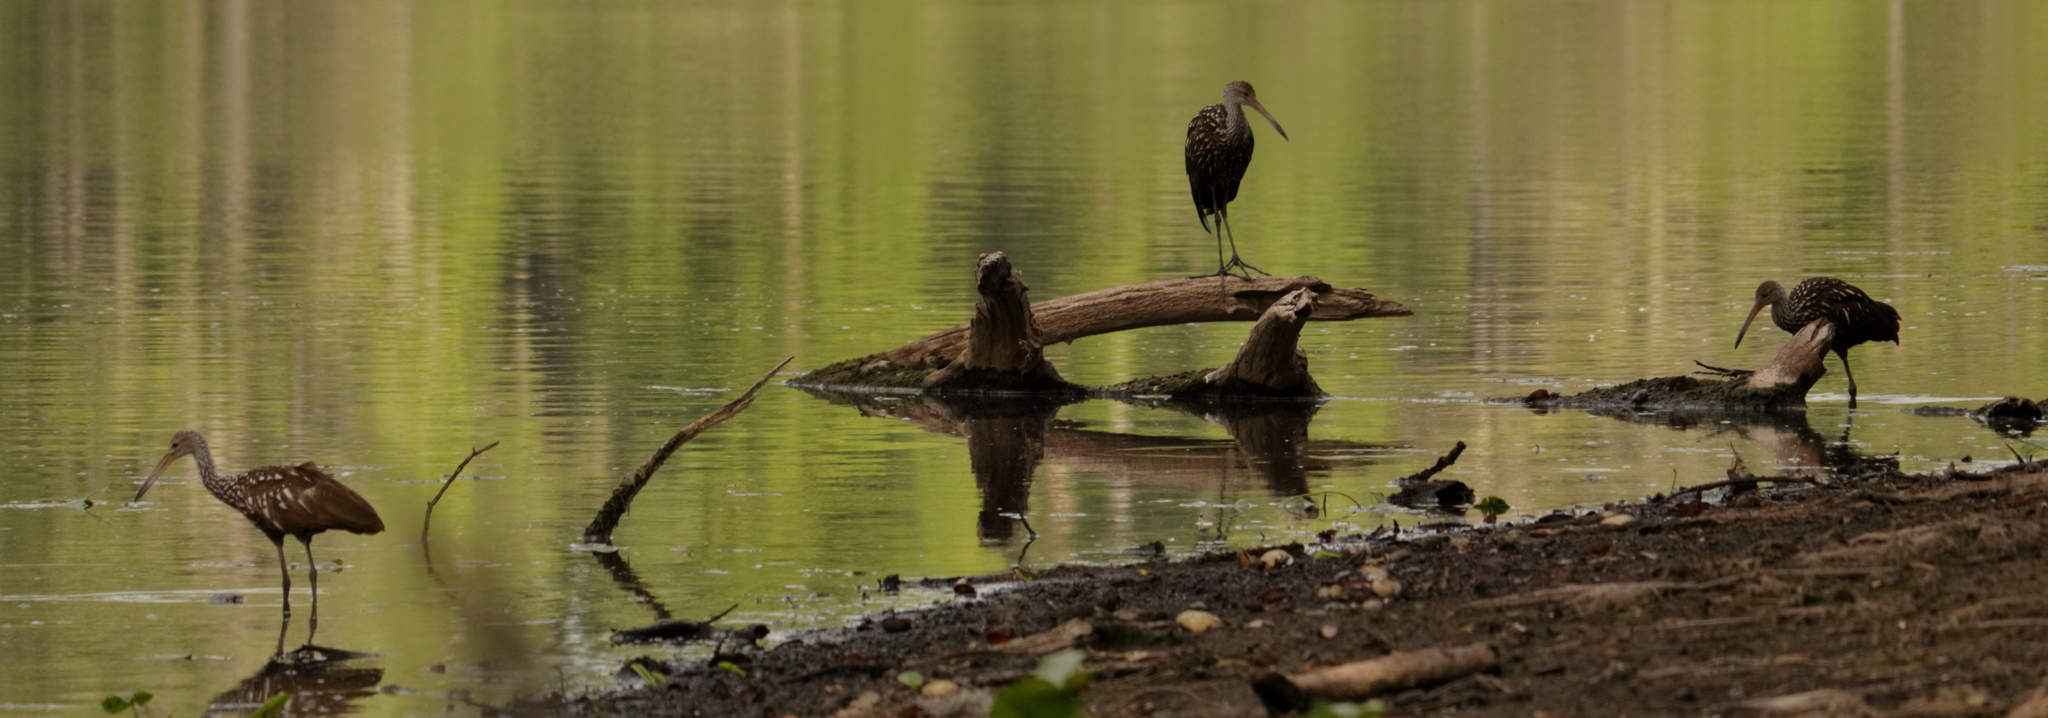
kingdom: Animalia
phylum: Chordata
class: Aves
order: Gruiformes
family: Aramidae
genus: Aramus
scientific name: Aramus guarauna
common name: Limpkin
